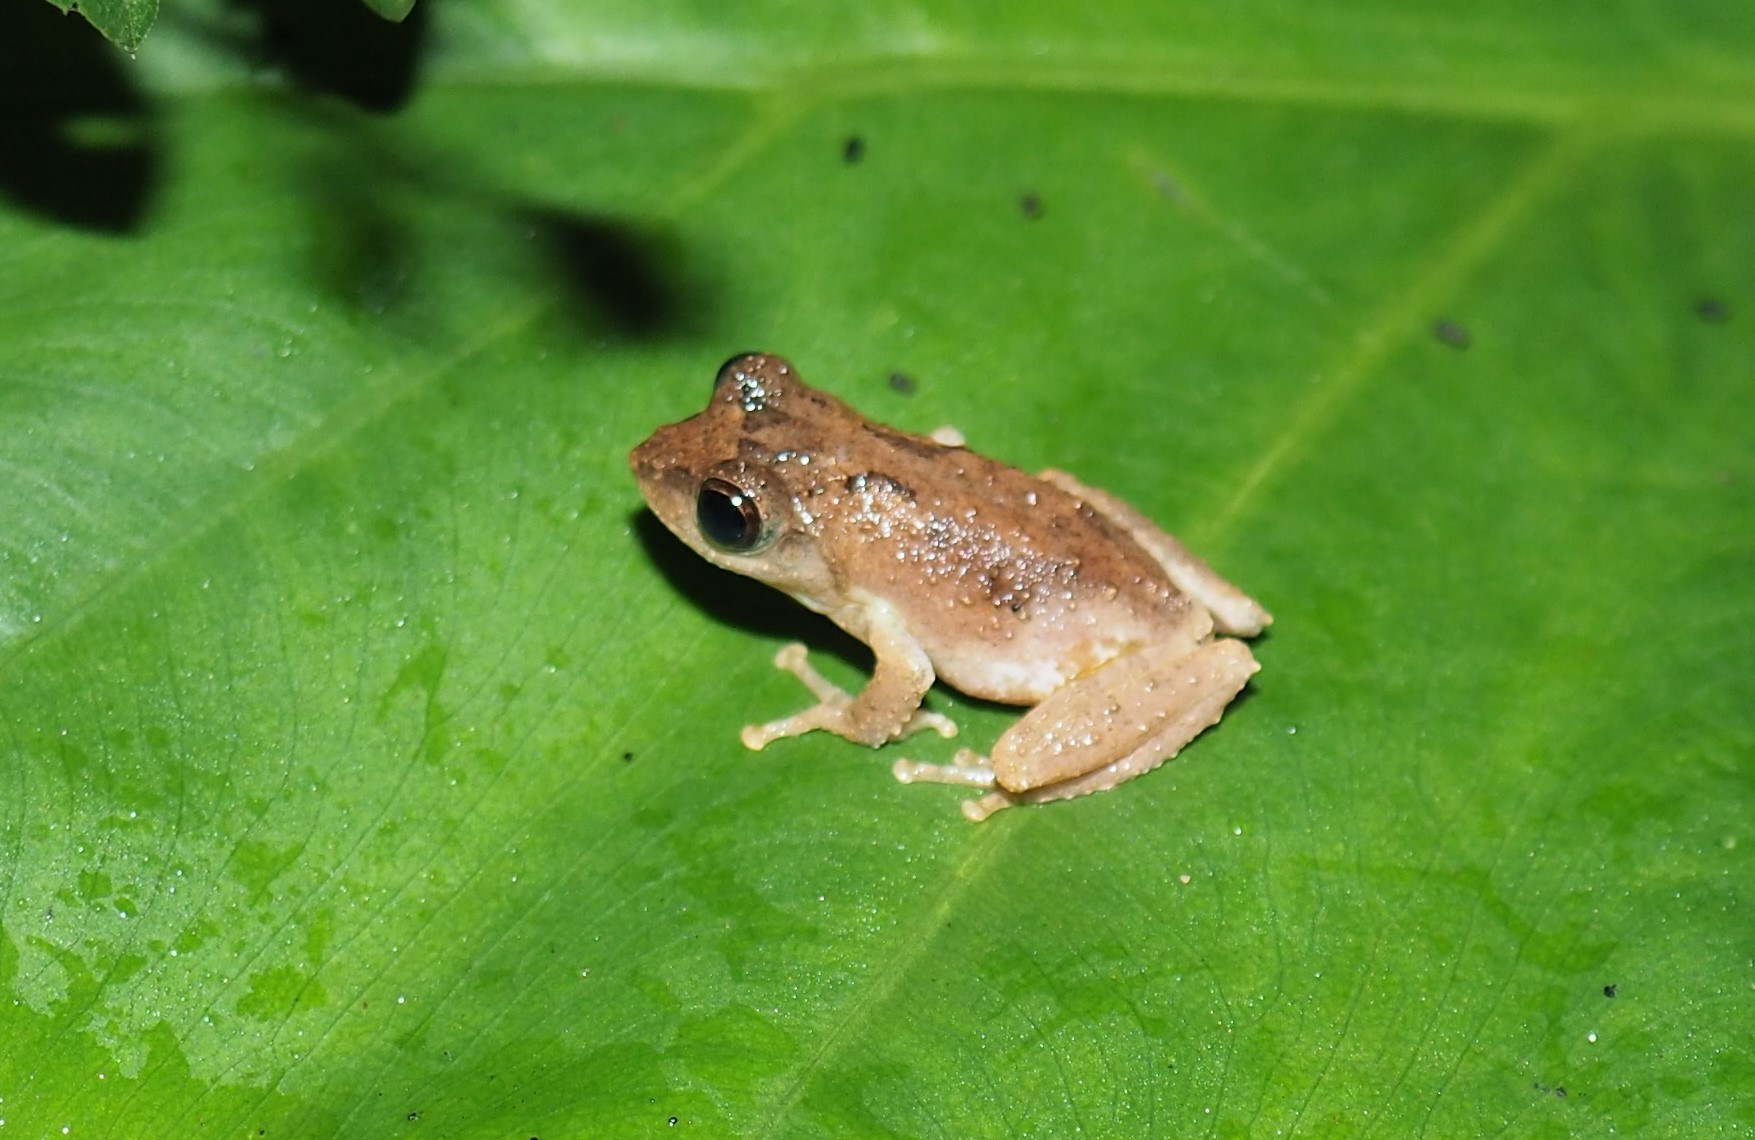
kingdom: Animalia
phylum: Chordata
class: Amphibia
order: Anura
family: Rhacophoridae
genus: Kurixalus
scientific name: Kurixalus idiootocus
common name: Temple treefrog
